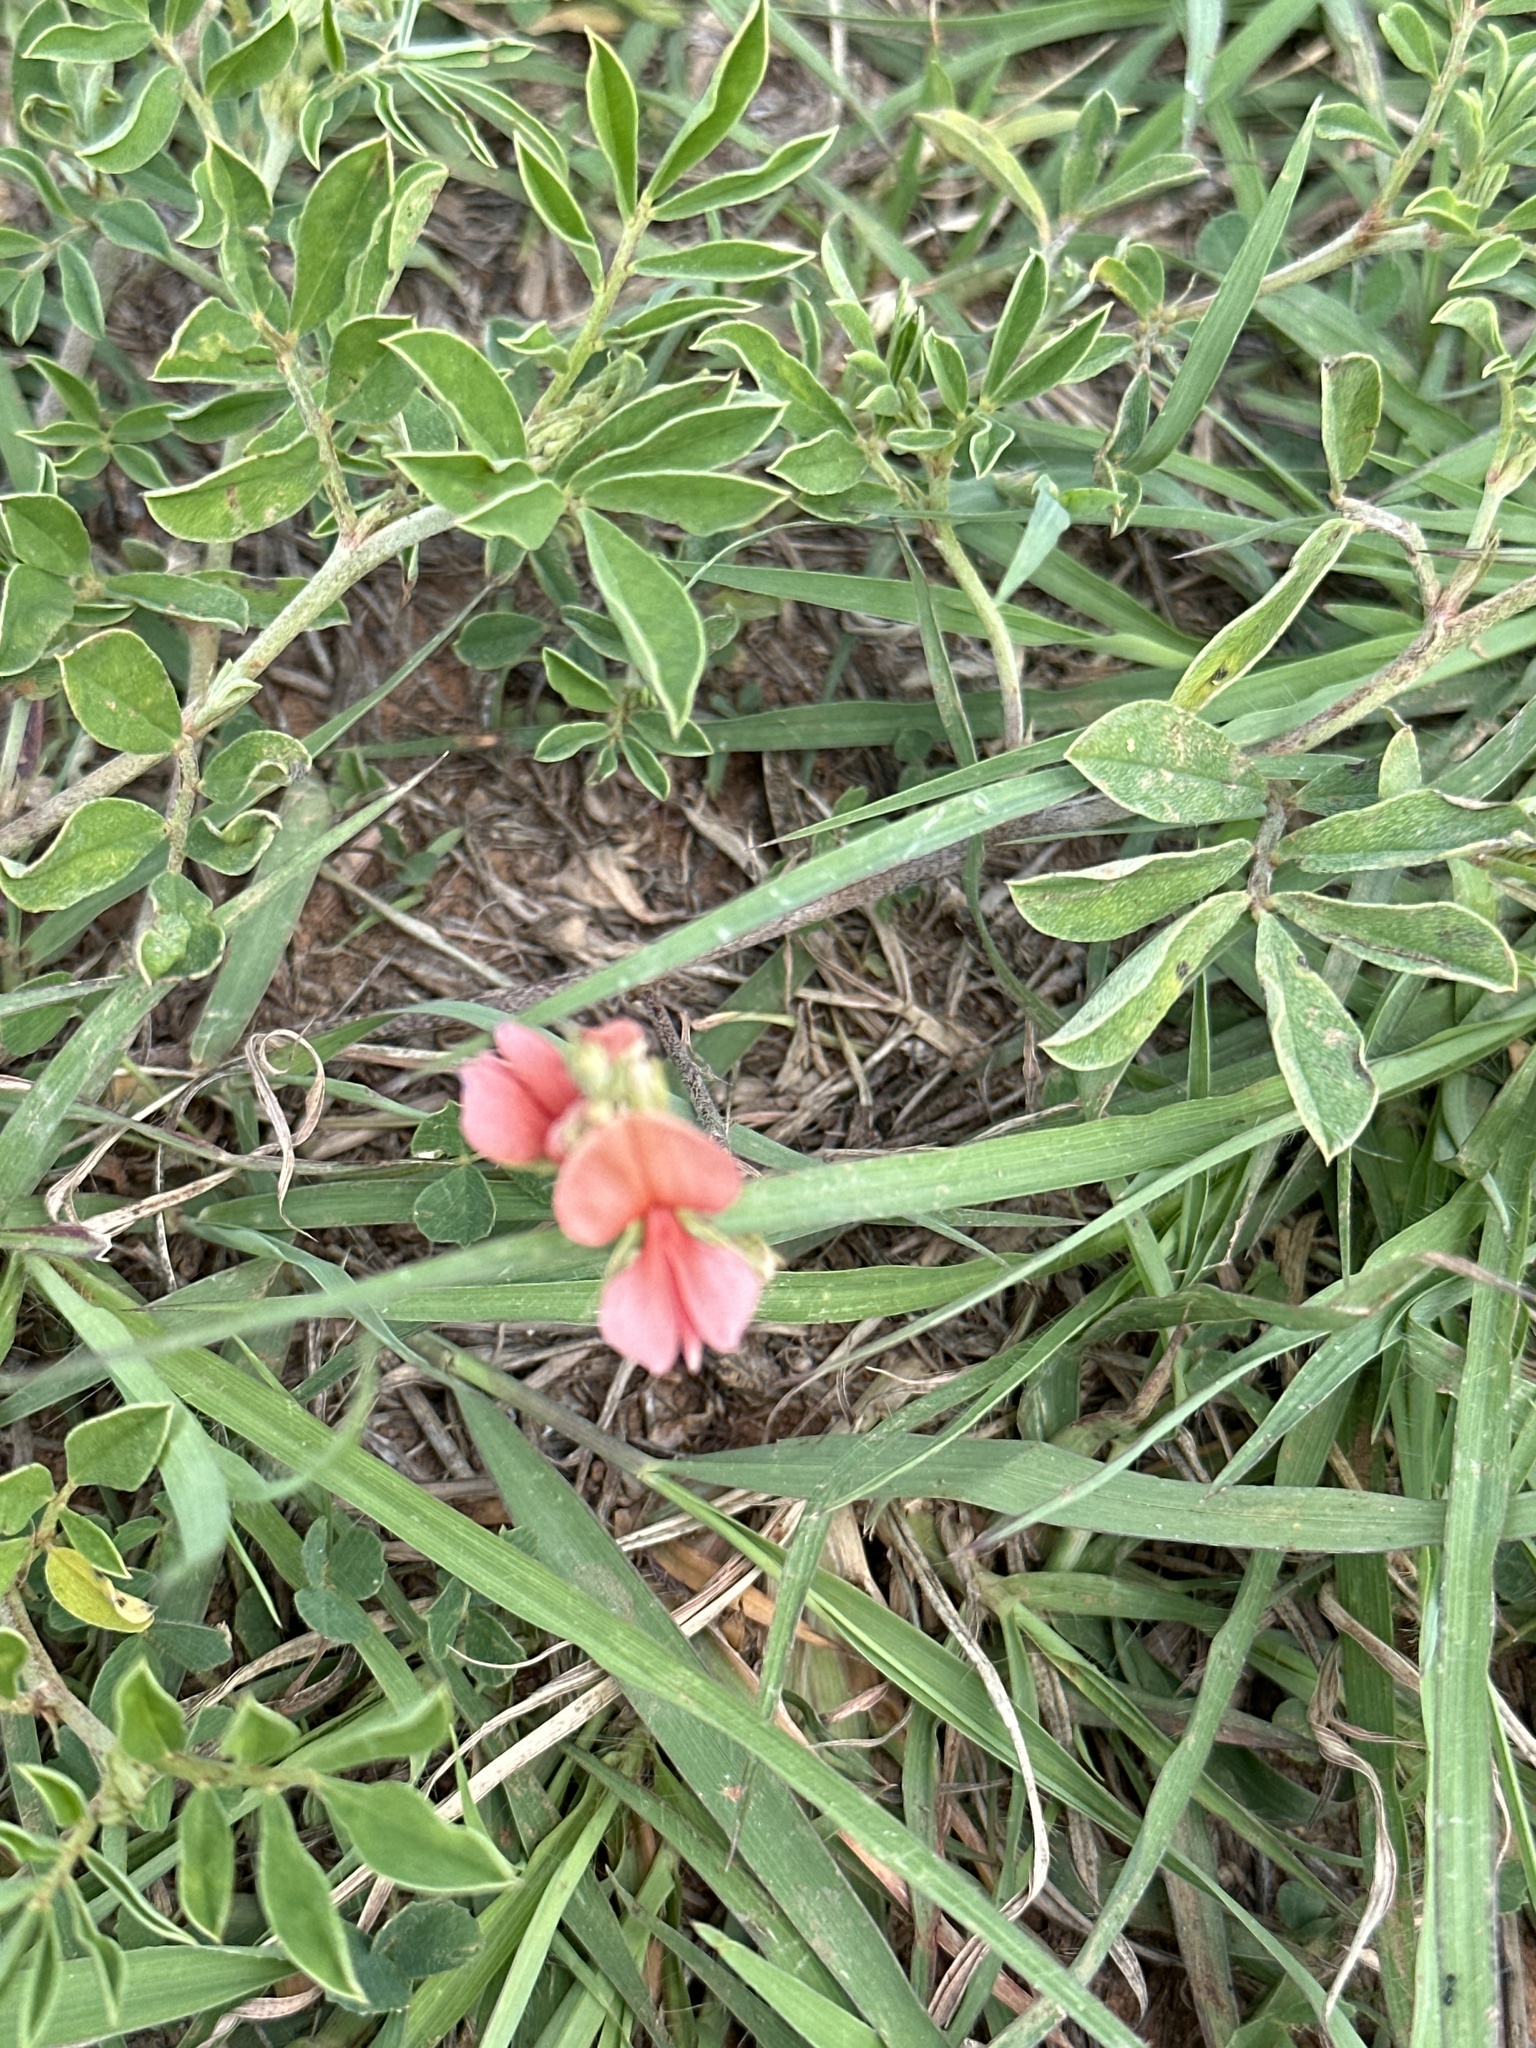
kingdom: Plantae
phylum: Tracheophyta
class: Magnoliopsida
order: Fabales
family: Fabaceae
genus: Indigofera
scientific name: Indigofera miniata
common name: Coast indigo
